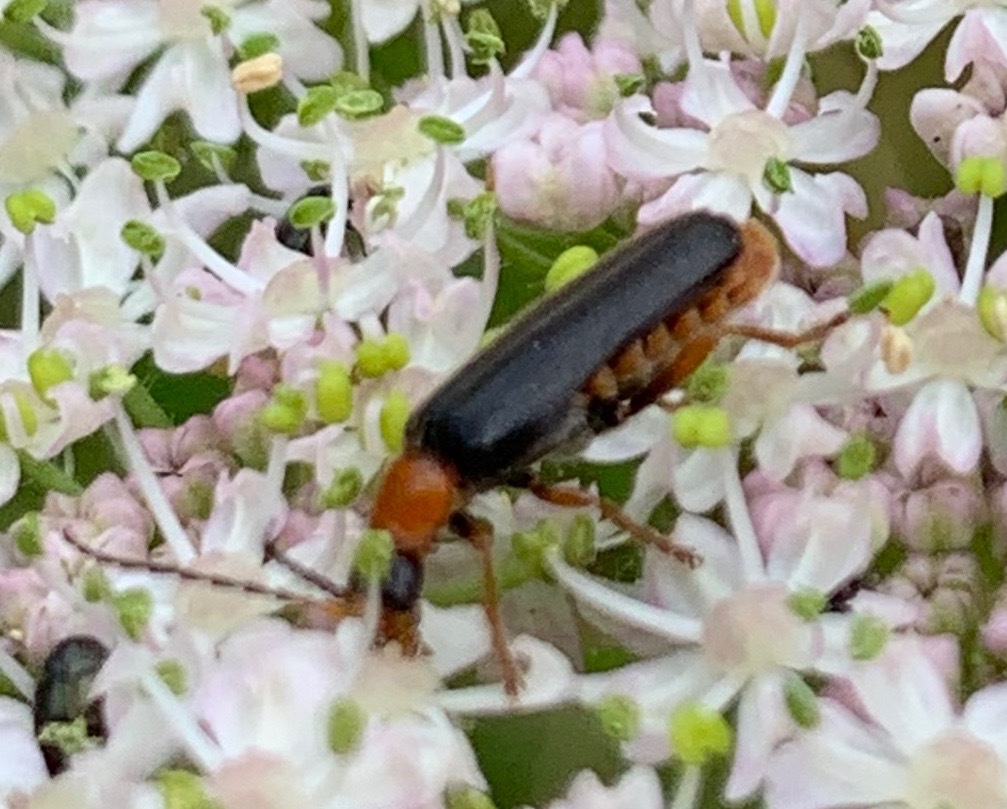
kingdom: Animalia
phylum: Arthropoda
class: Insecta
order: Coleoptera
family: Cantharidae
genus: Cantharis
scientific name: Cantharis flavilabris
